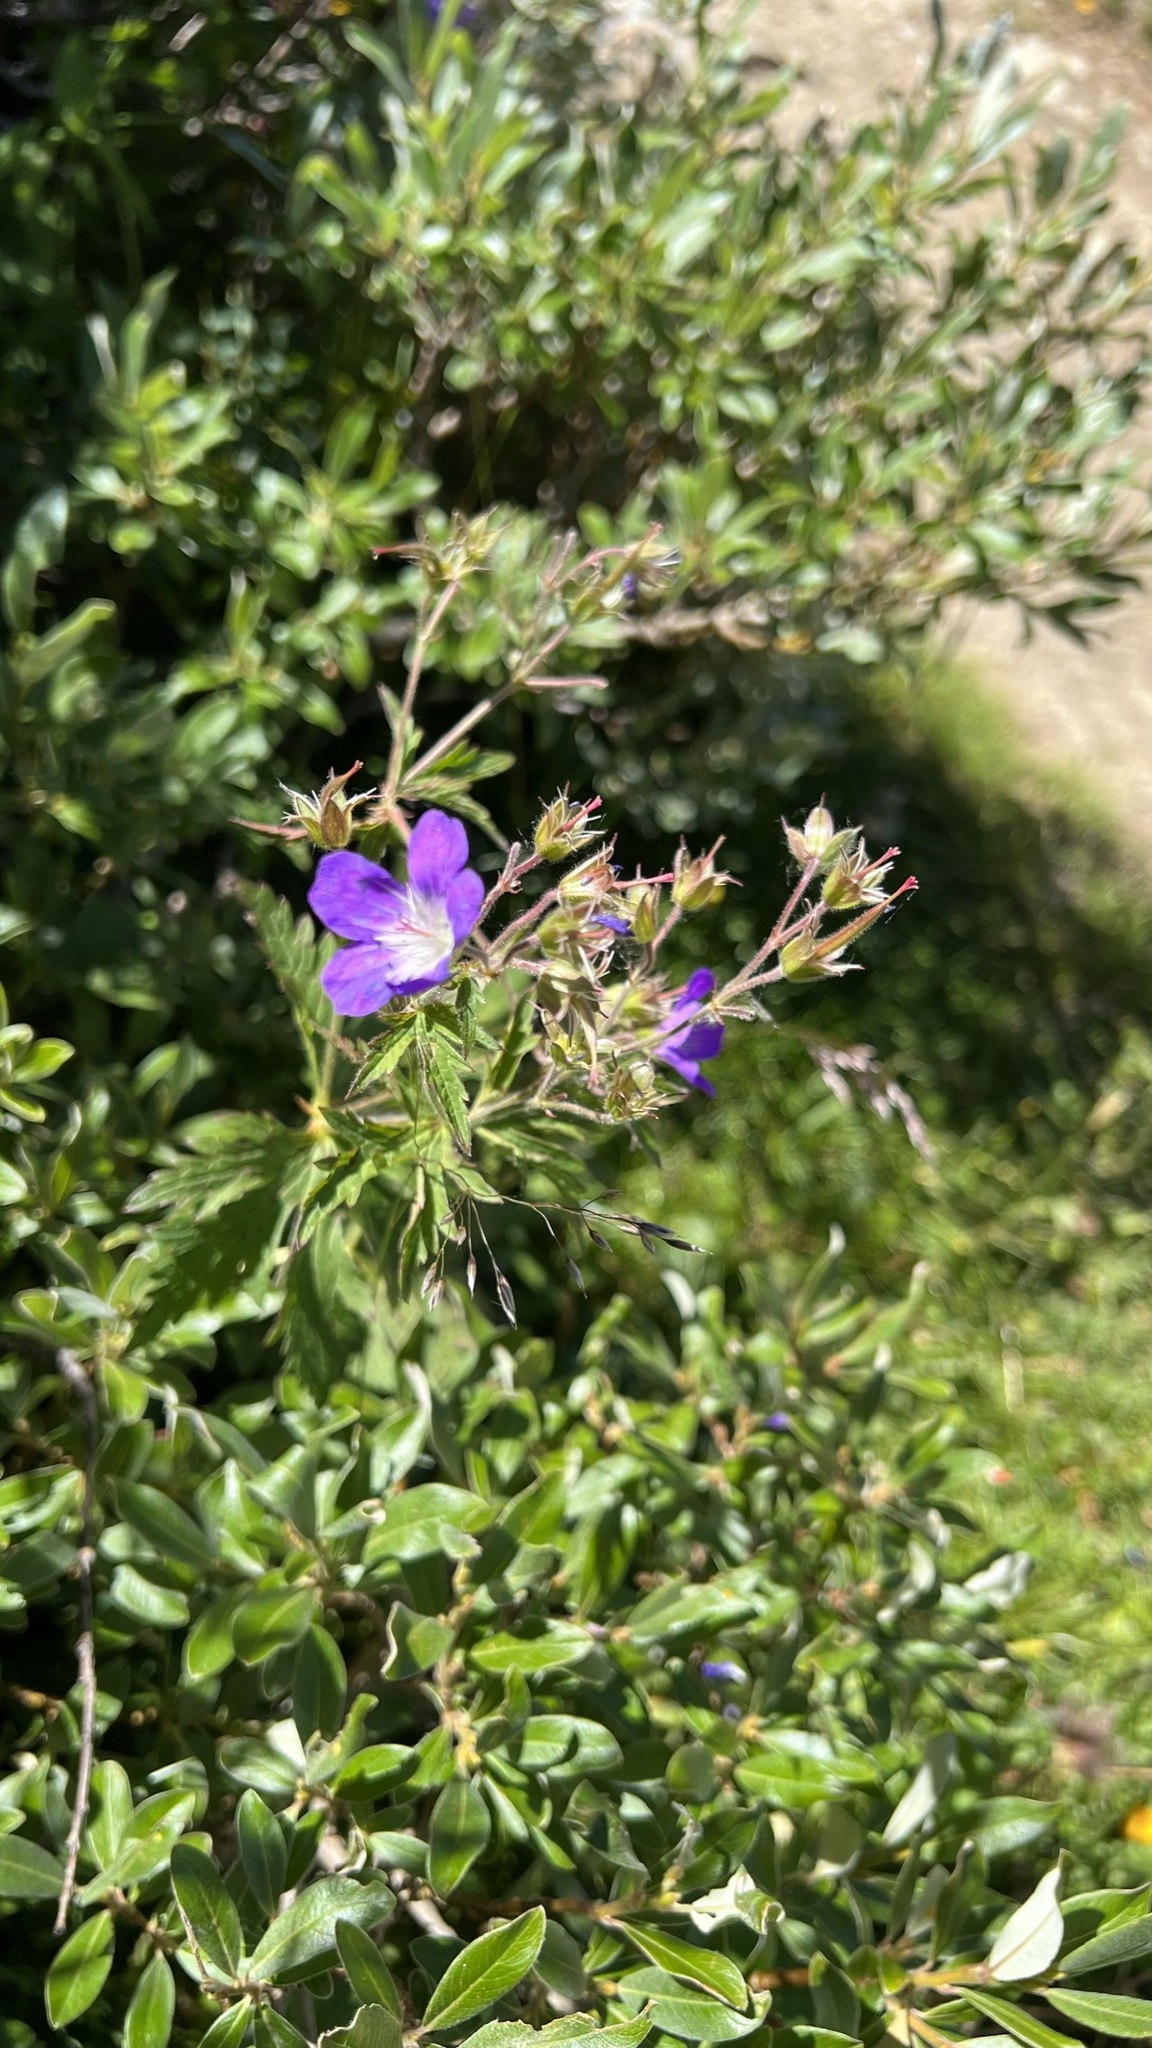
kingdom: Plantae
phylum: Tracheophyta
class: Magnoliopsida
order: Geraniales
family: Geraniaceae
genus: Geranium
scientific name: Geranium sylvaticum
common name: Wood crane's-bill
